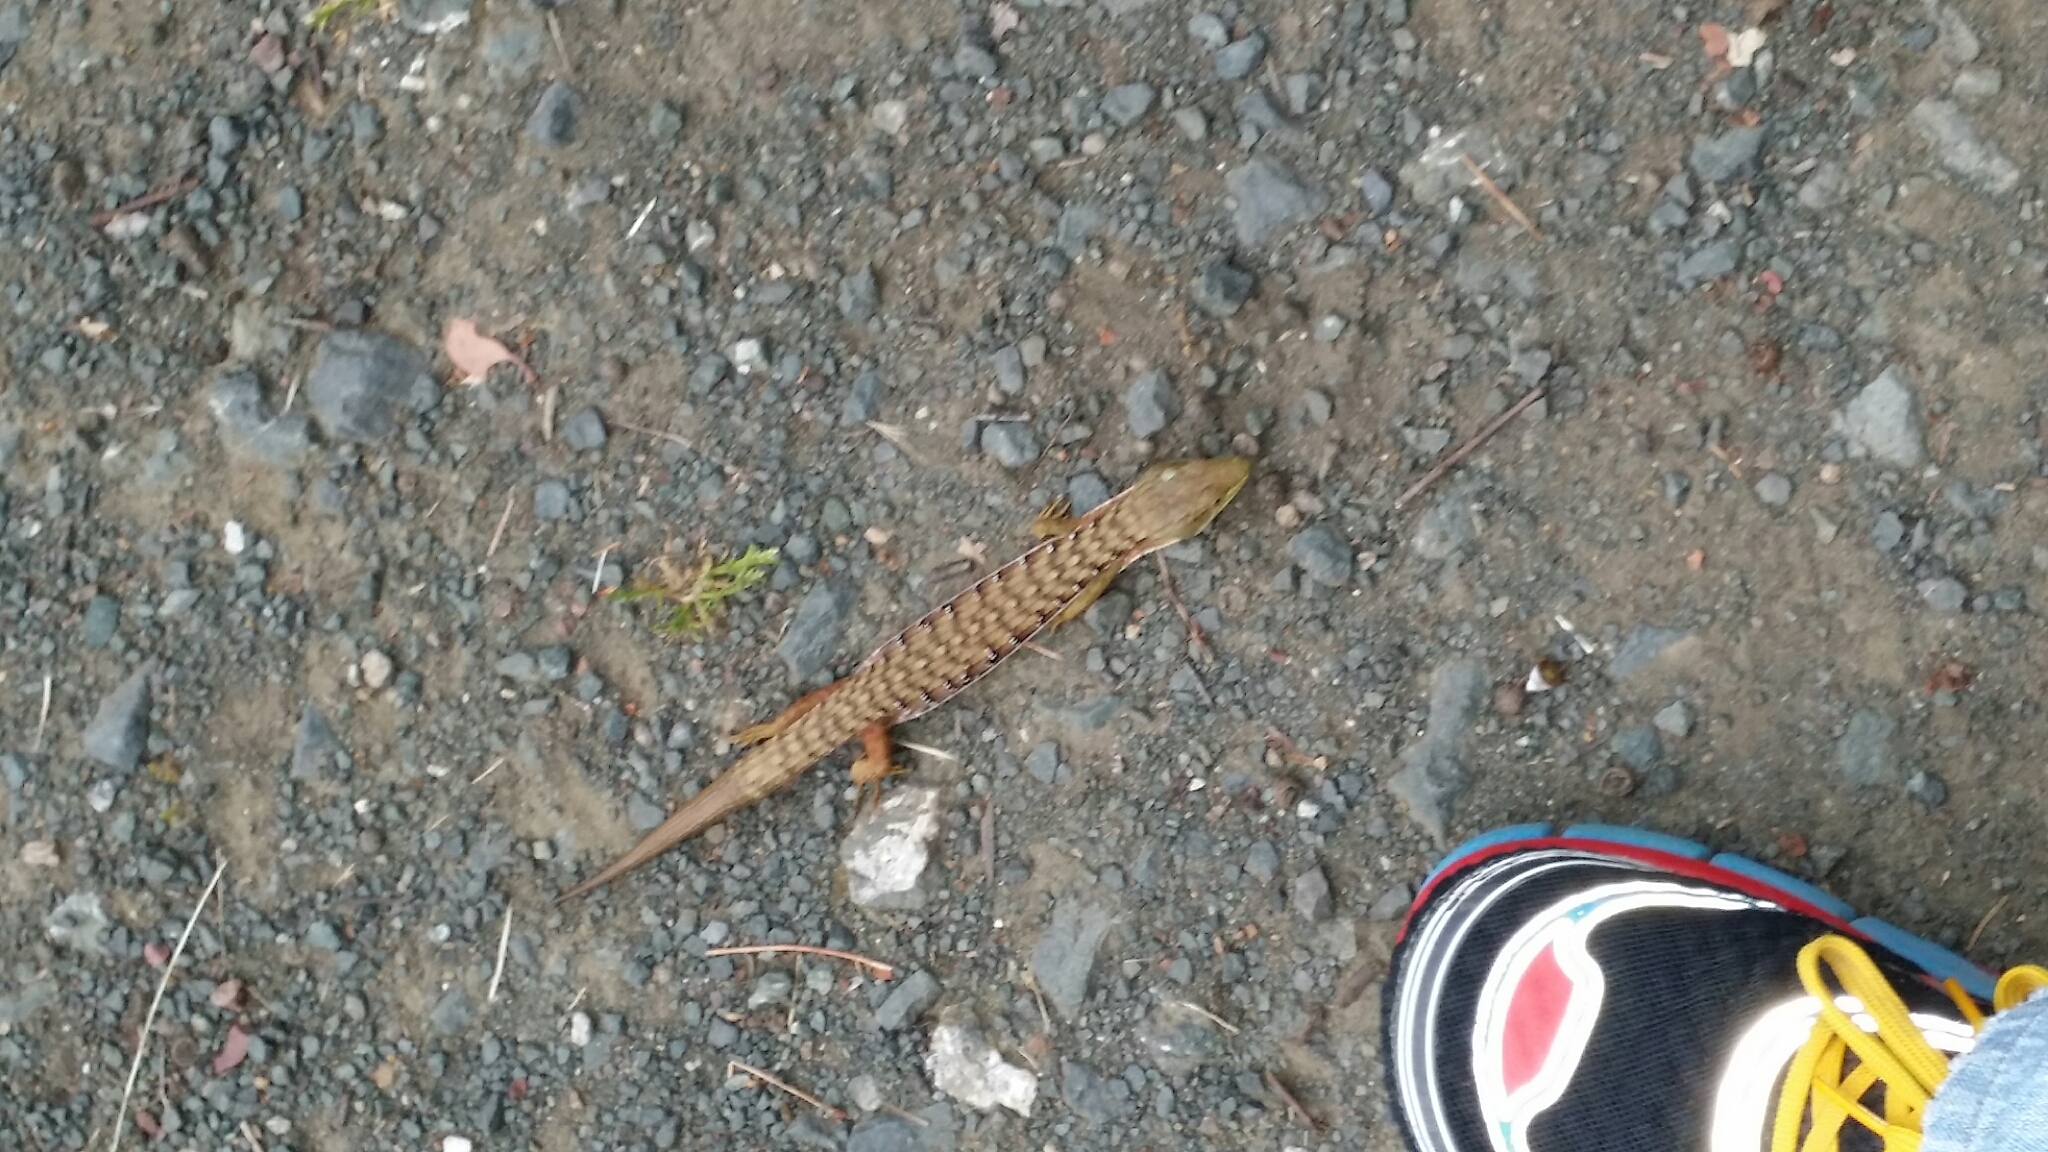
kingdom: Animalia
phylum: Chordata
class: Squamata
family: Anguidae
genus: Elgaria
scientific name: Elgaria multicarinata
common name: Southern alligator lizard
